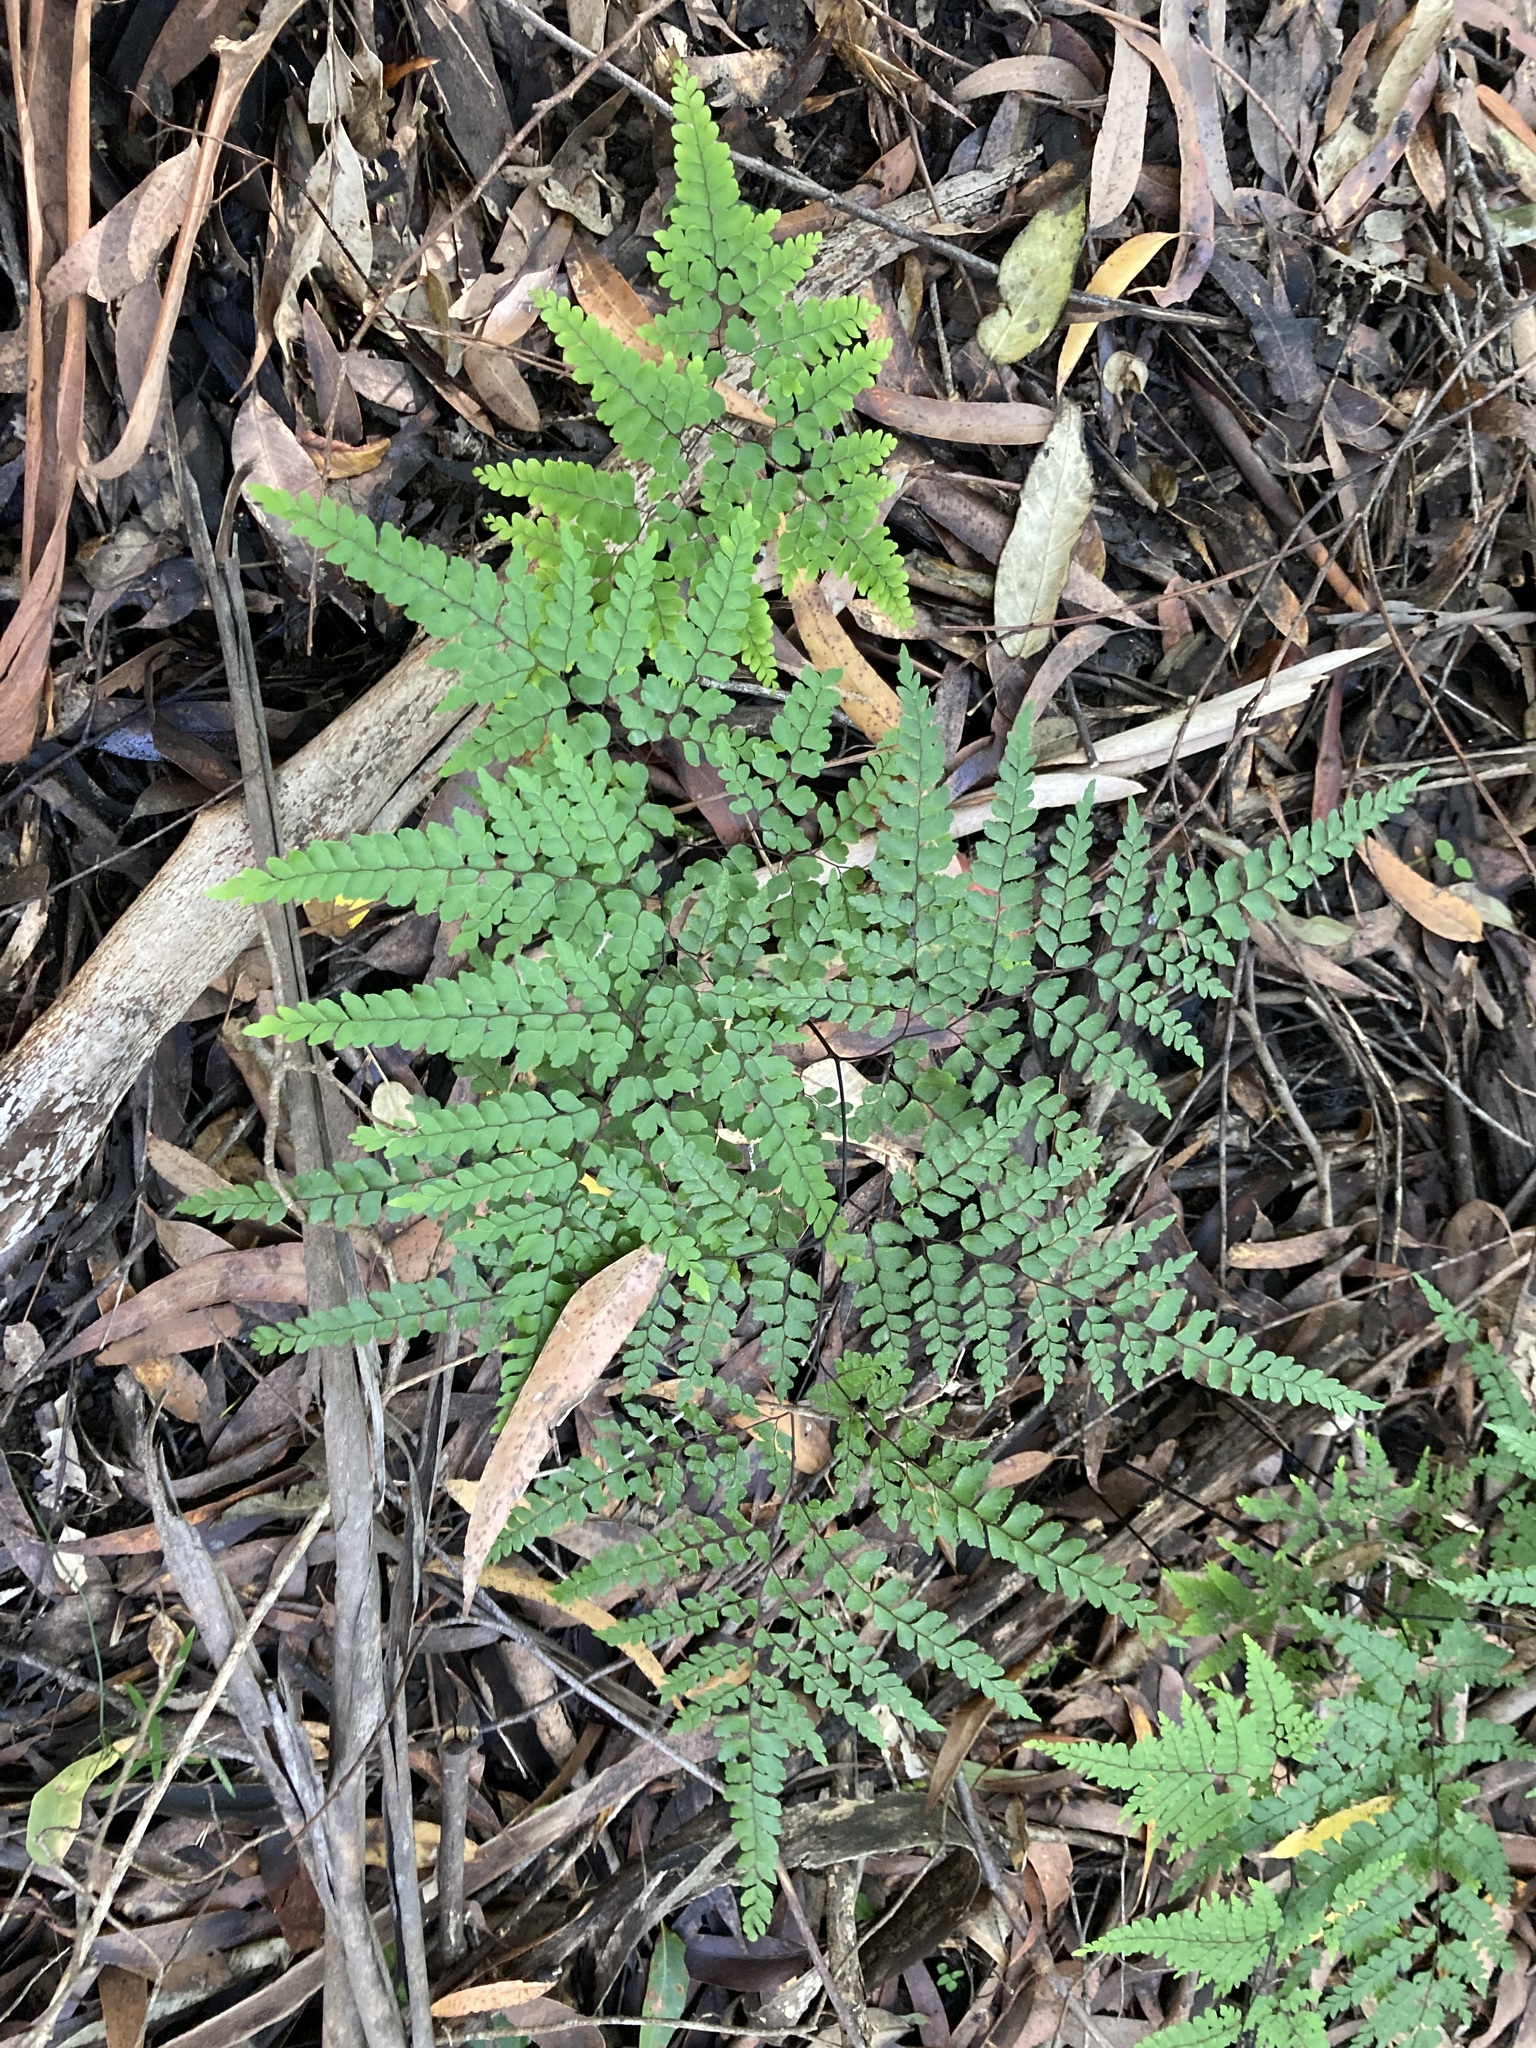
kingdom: Plantae
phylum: Tracheophyta
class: Polypodiopsida
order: Polypodiales
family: Pteridaceae
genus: Adiantum
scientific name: Adiantum formosum
